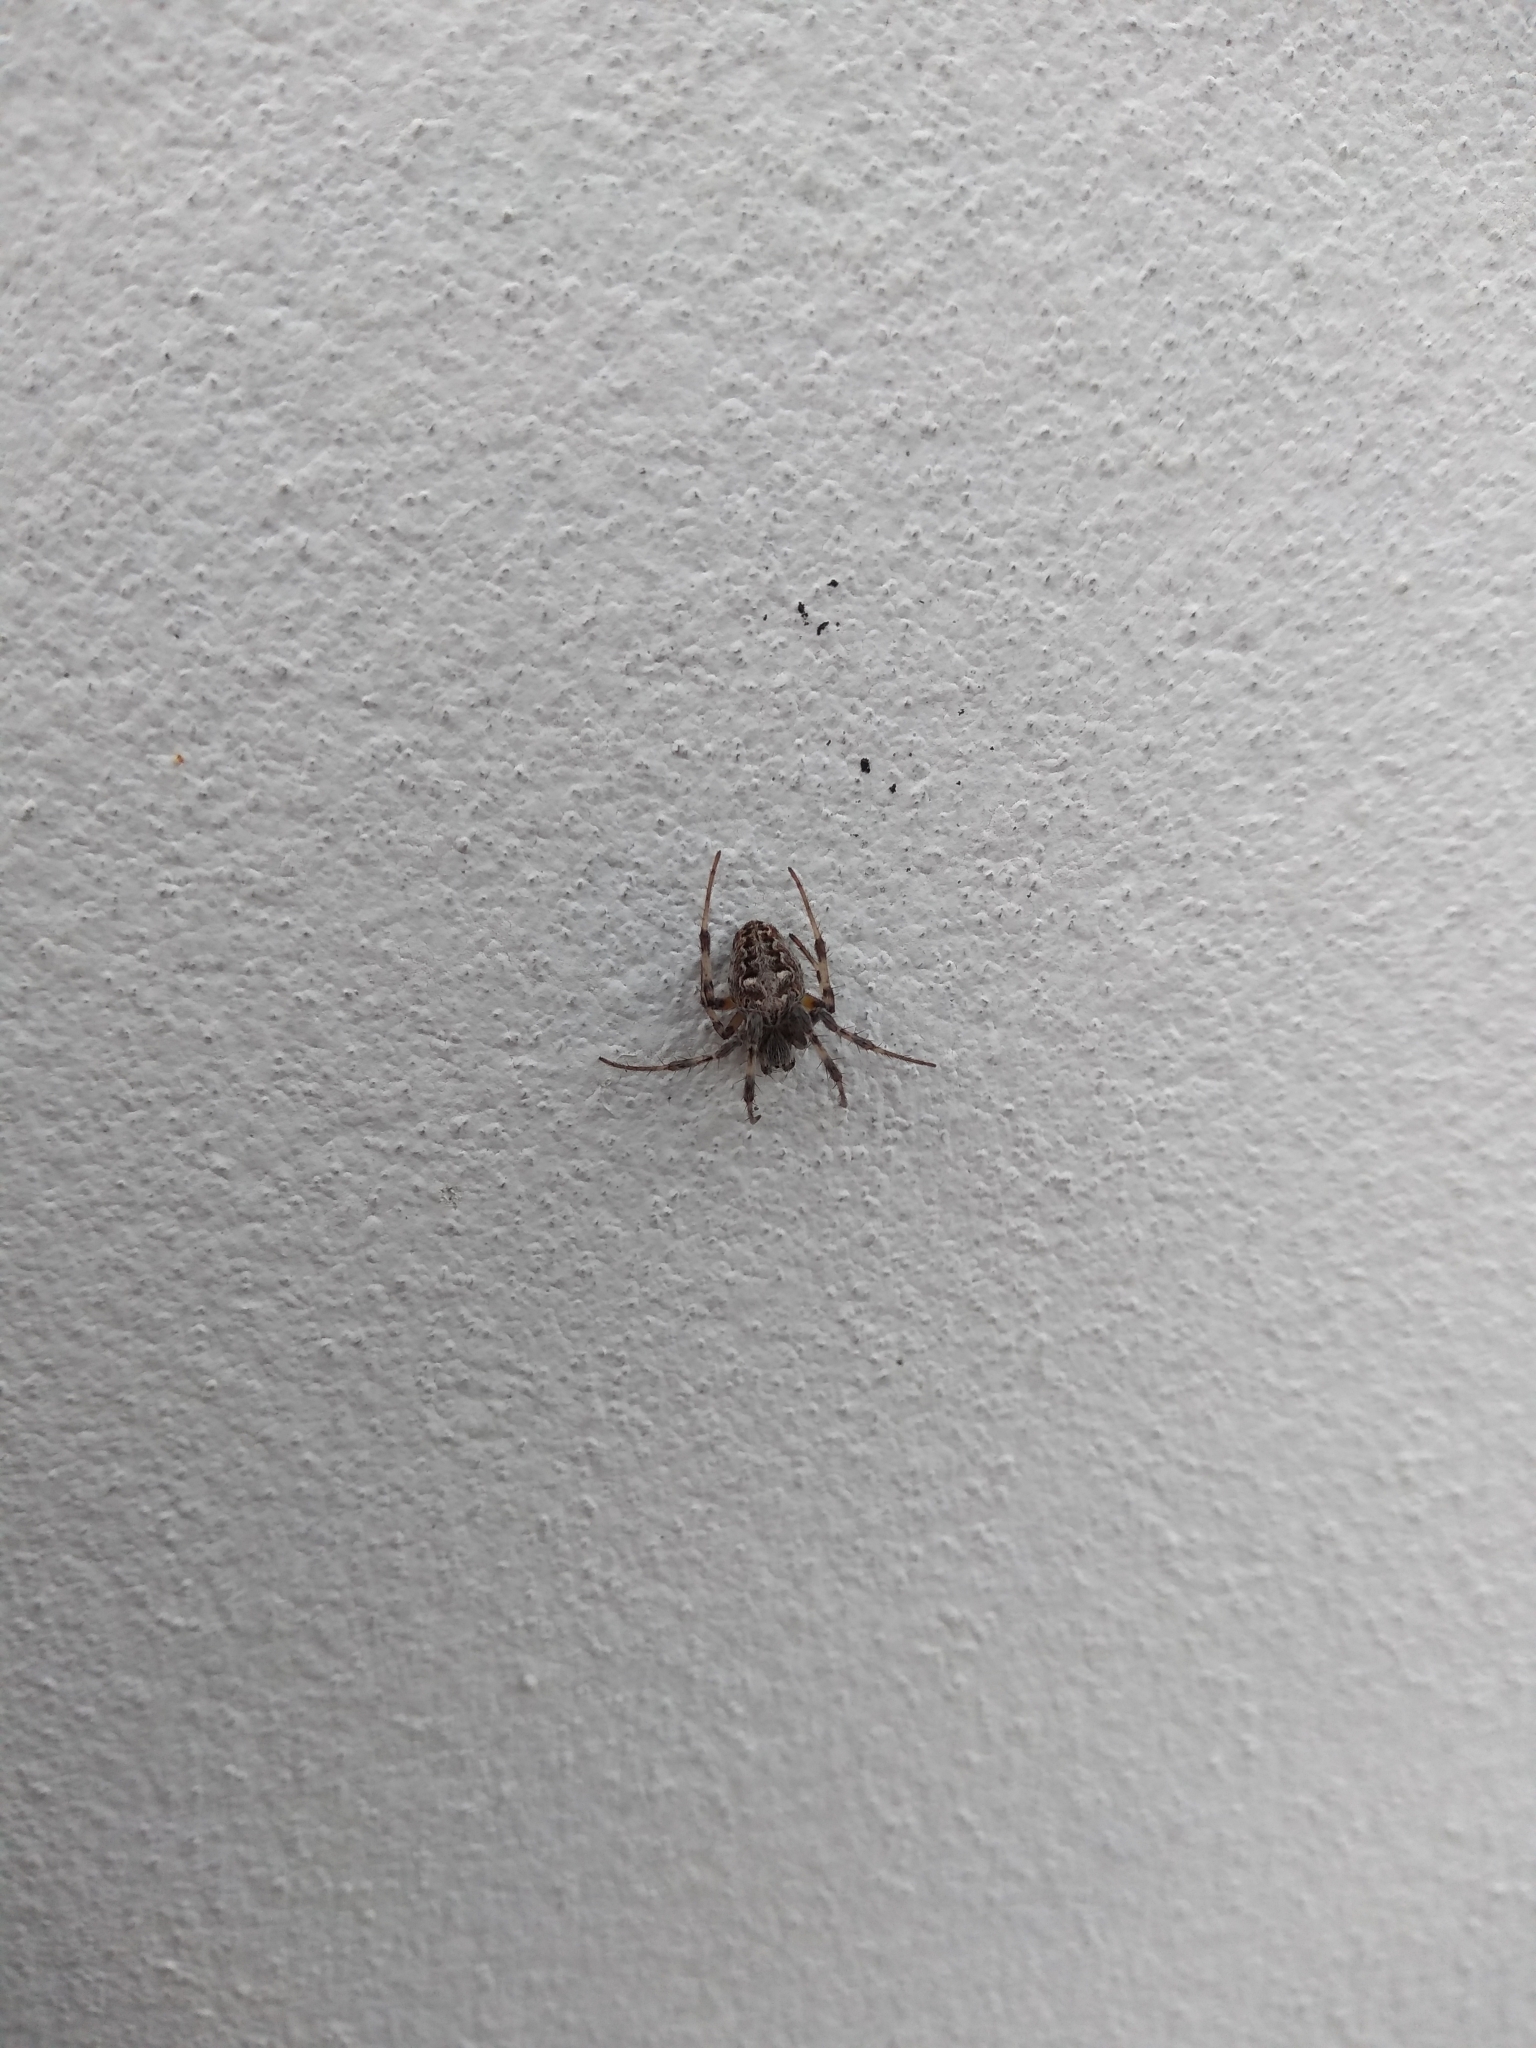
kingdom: Animalia
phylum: Arthropoda
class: Arachnida
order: Araneae
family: Araneidae
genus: Metepeira
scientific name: Metepeira
